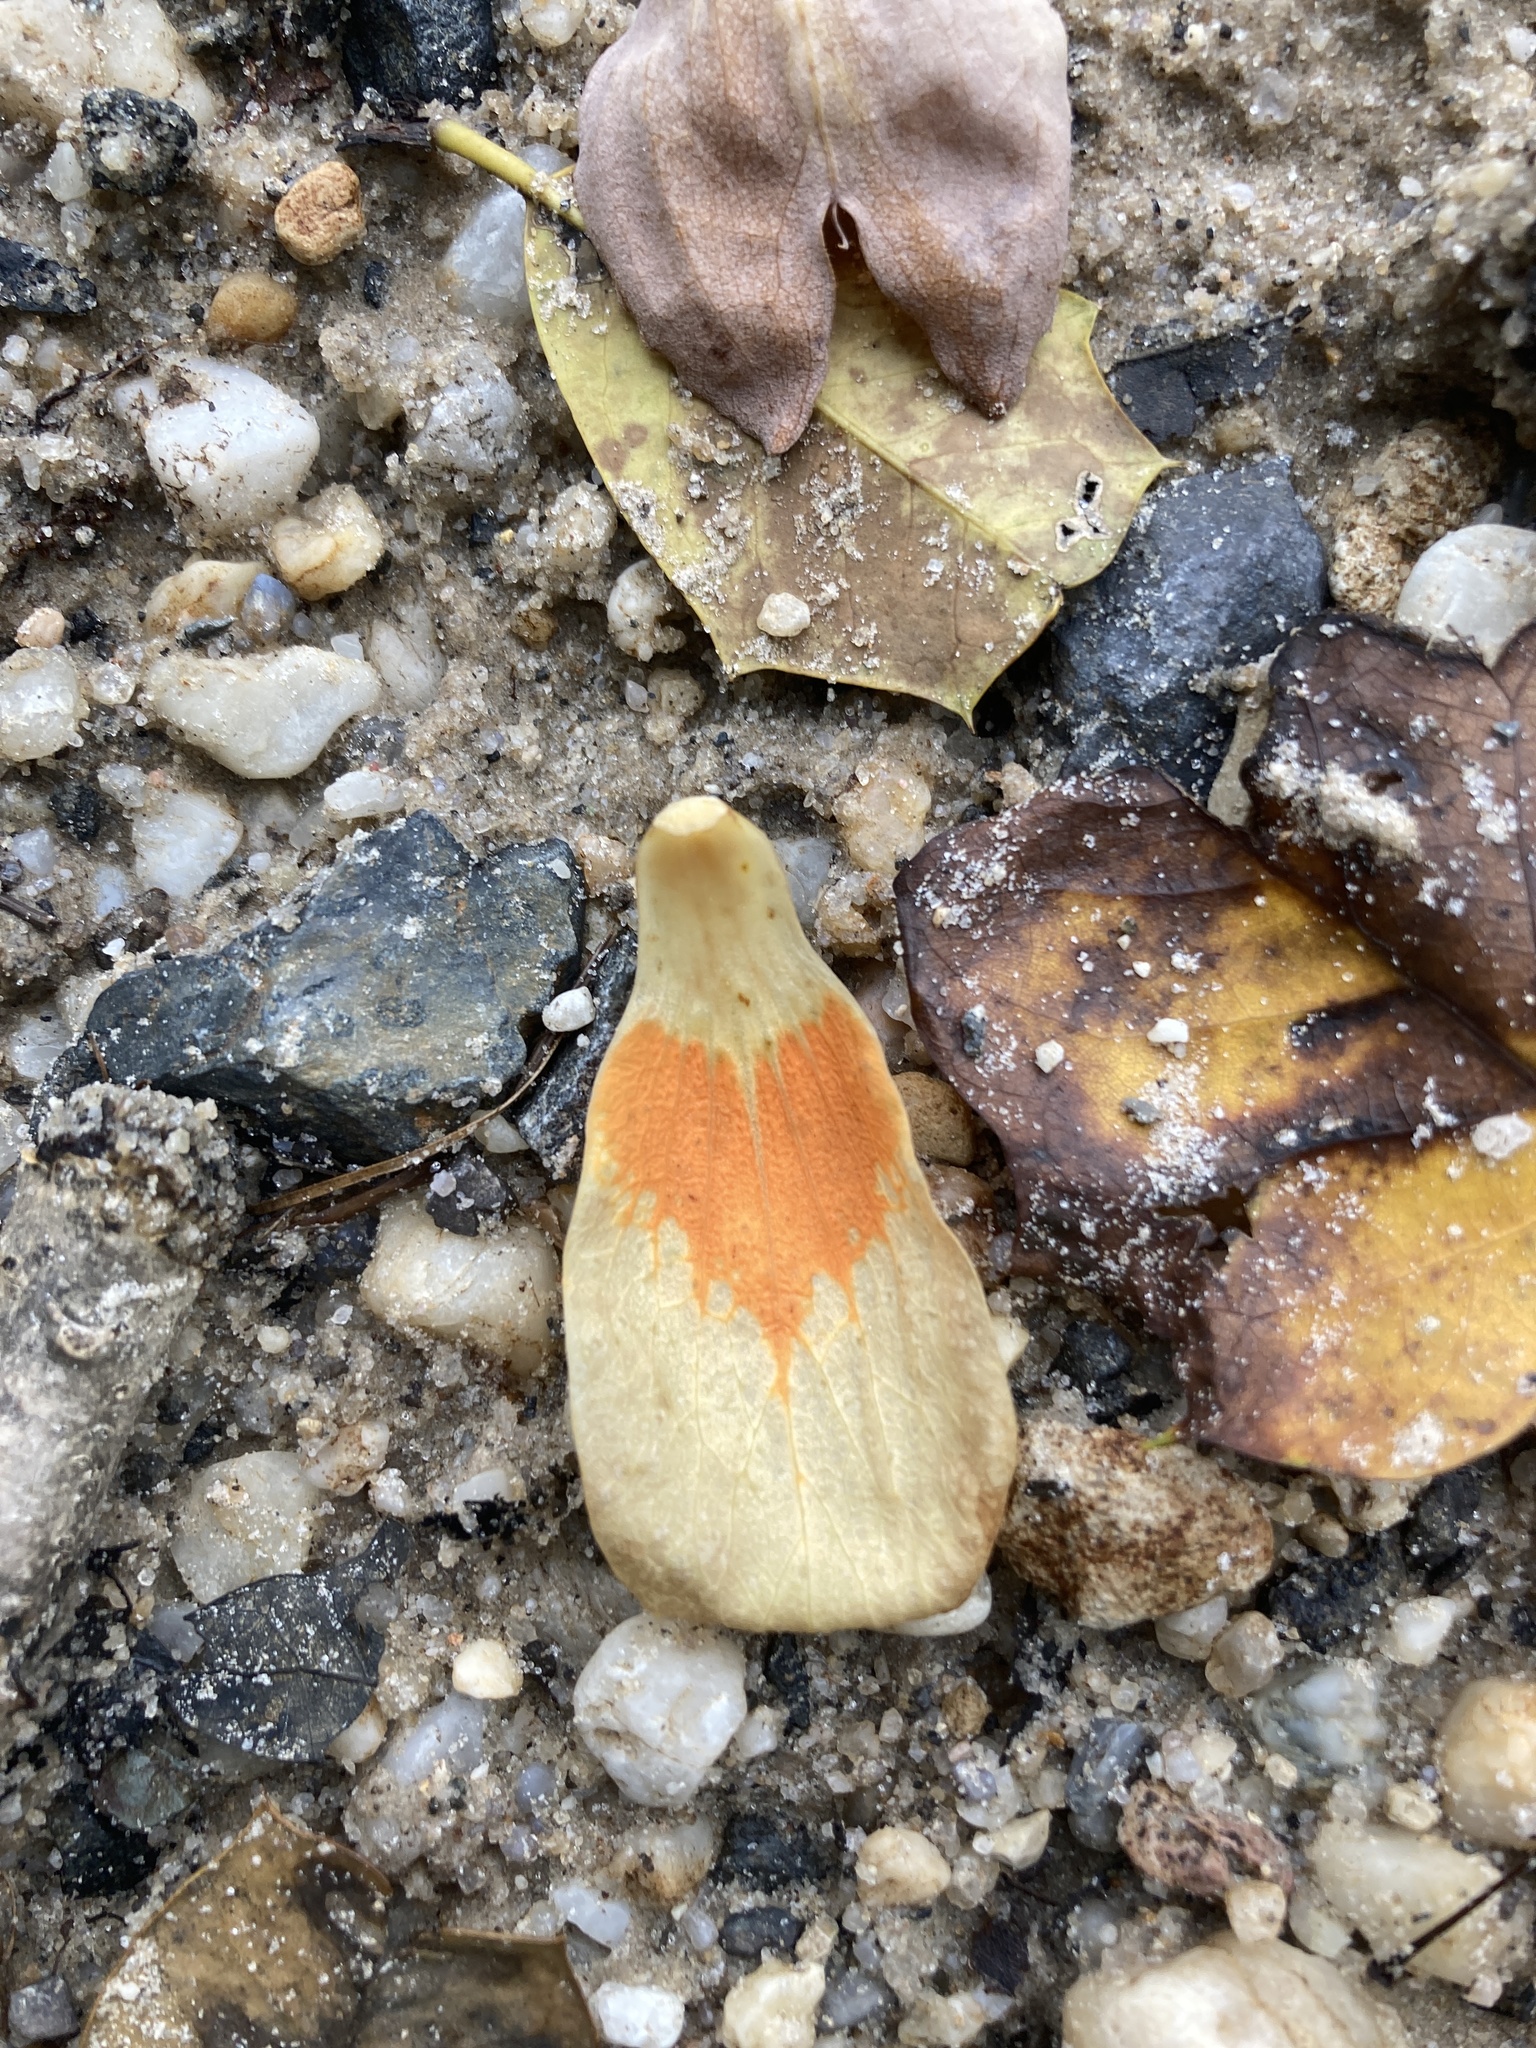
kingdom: Plantae
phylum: Tracheophyta
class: Magnoliopsida
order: Magnoliales
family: Magnoliaceae
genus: Liriodendron
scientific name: Liriodendron tulipifera
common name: Tulip tree
